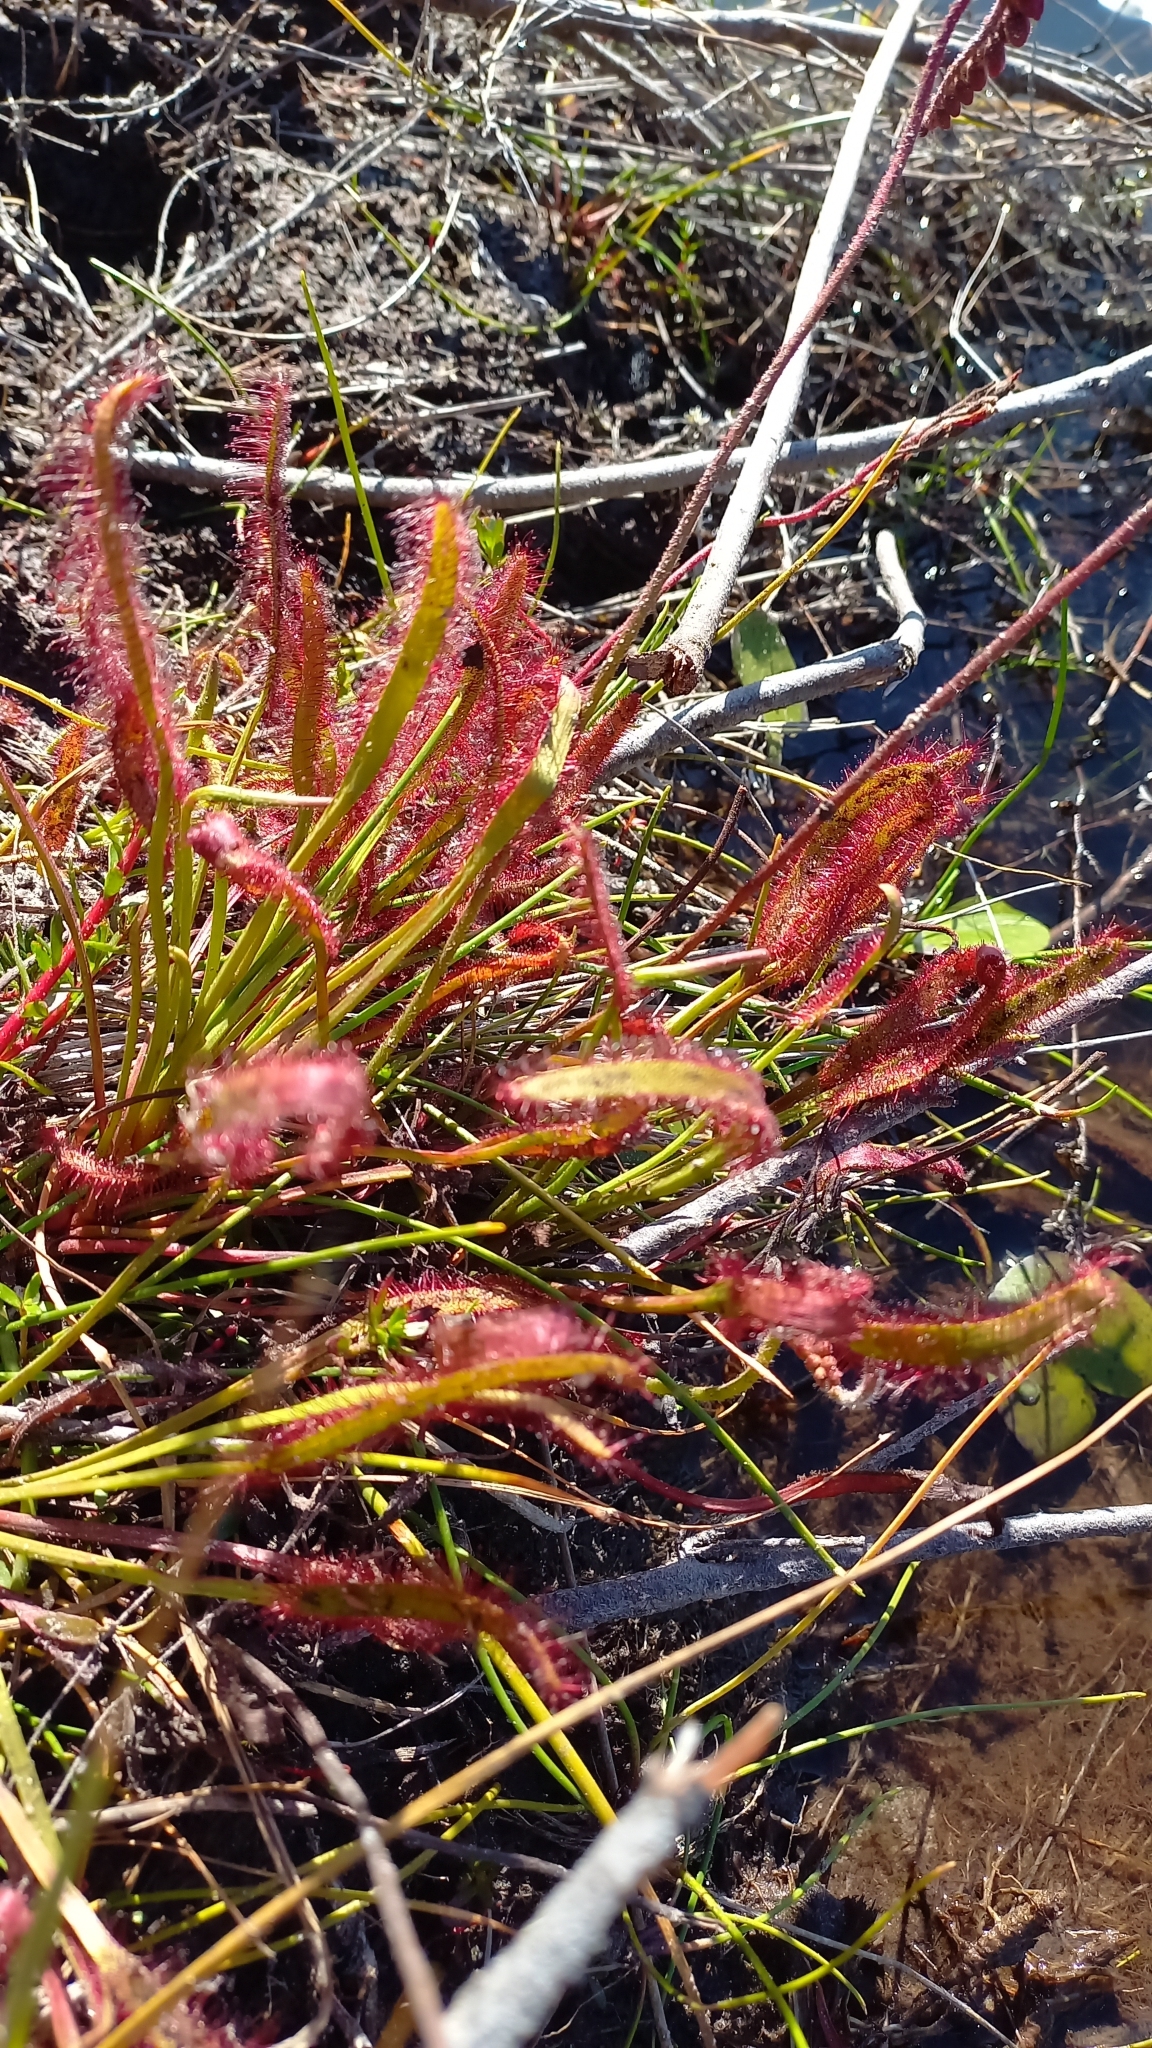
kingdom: Plantae
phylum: Tracheophyta
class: Magnoliopsida
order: Caryophyllales
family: Droseraceae
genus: Drosera
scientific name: Drosera capensis
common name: Cape sundew
